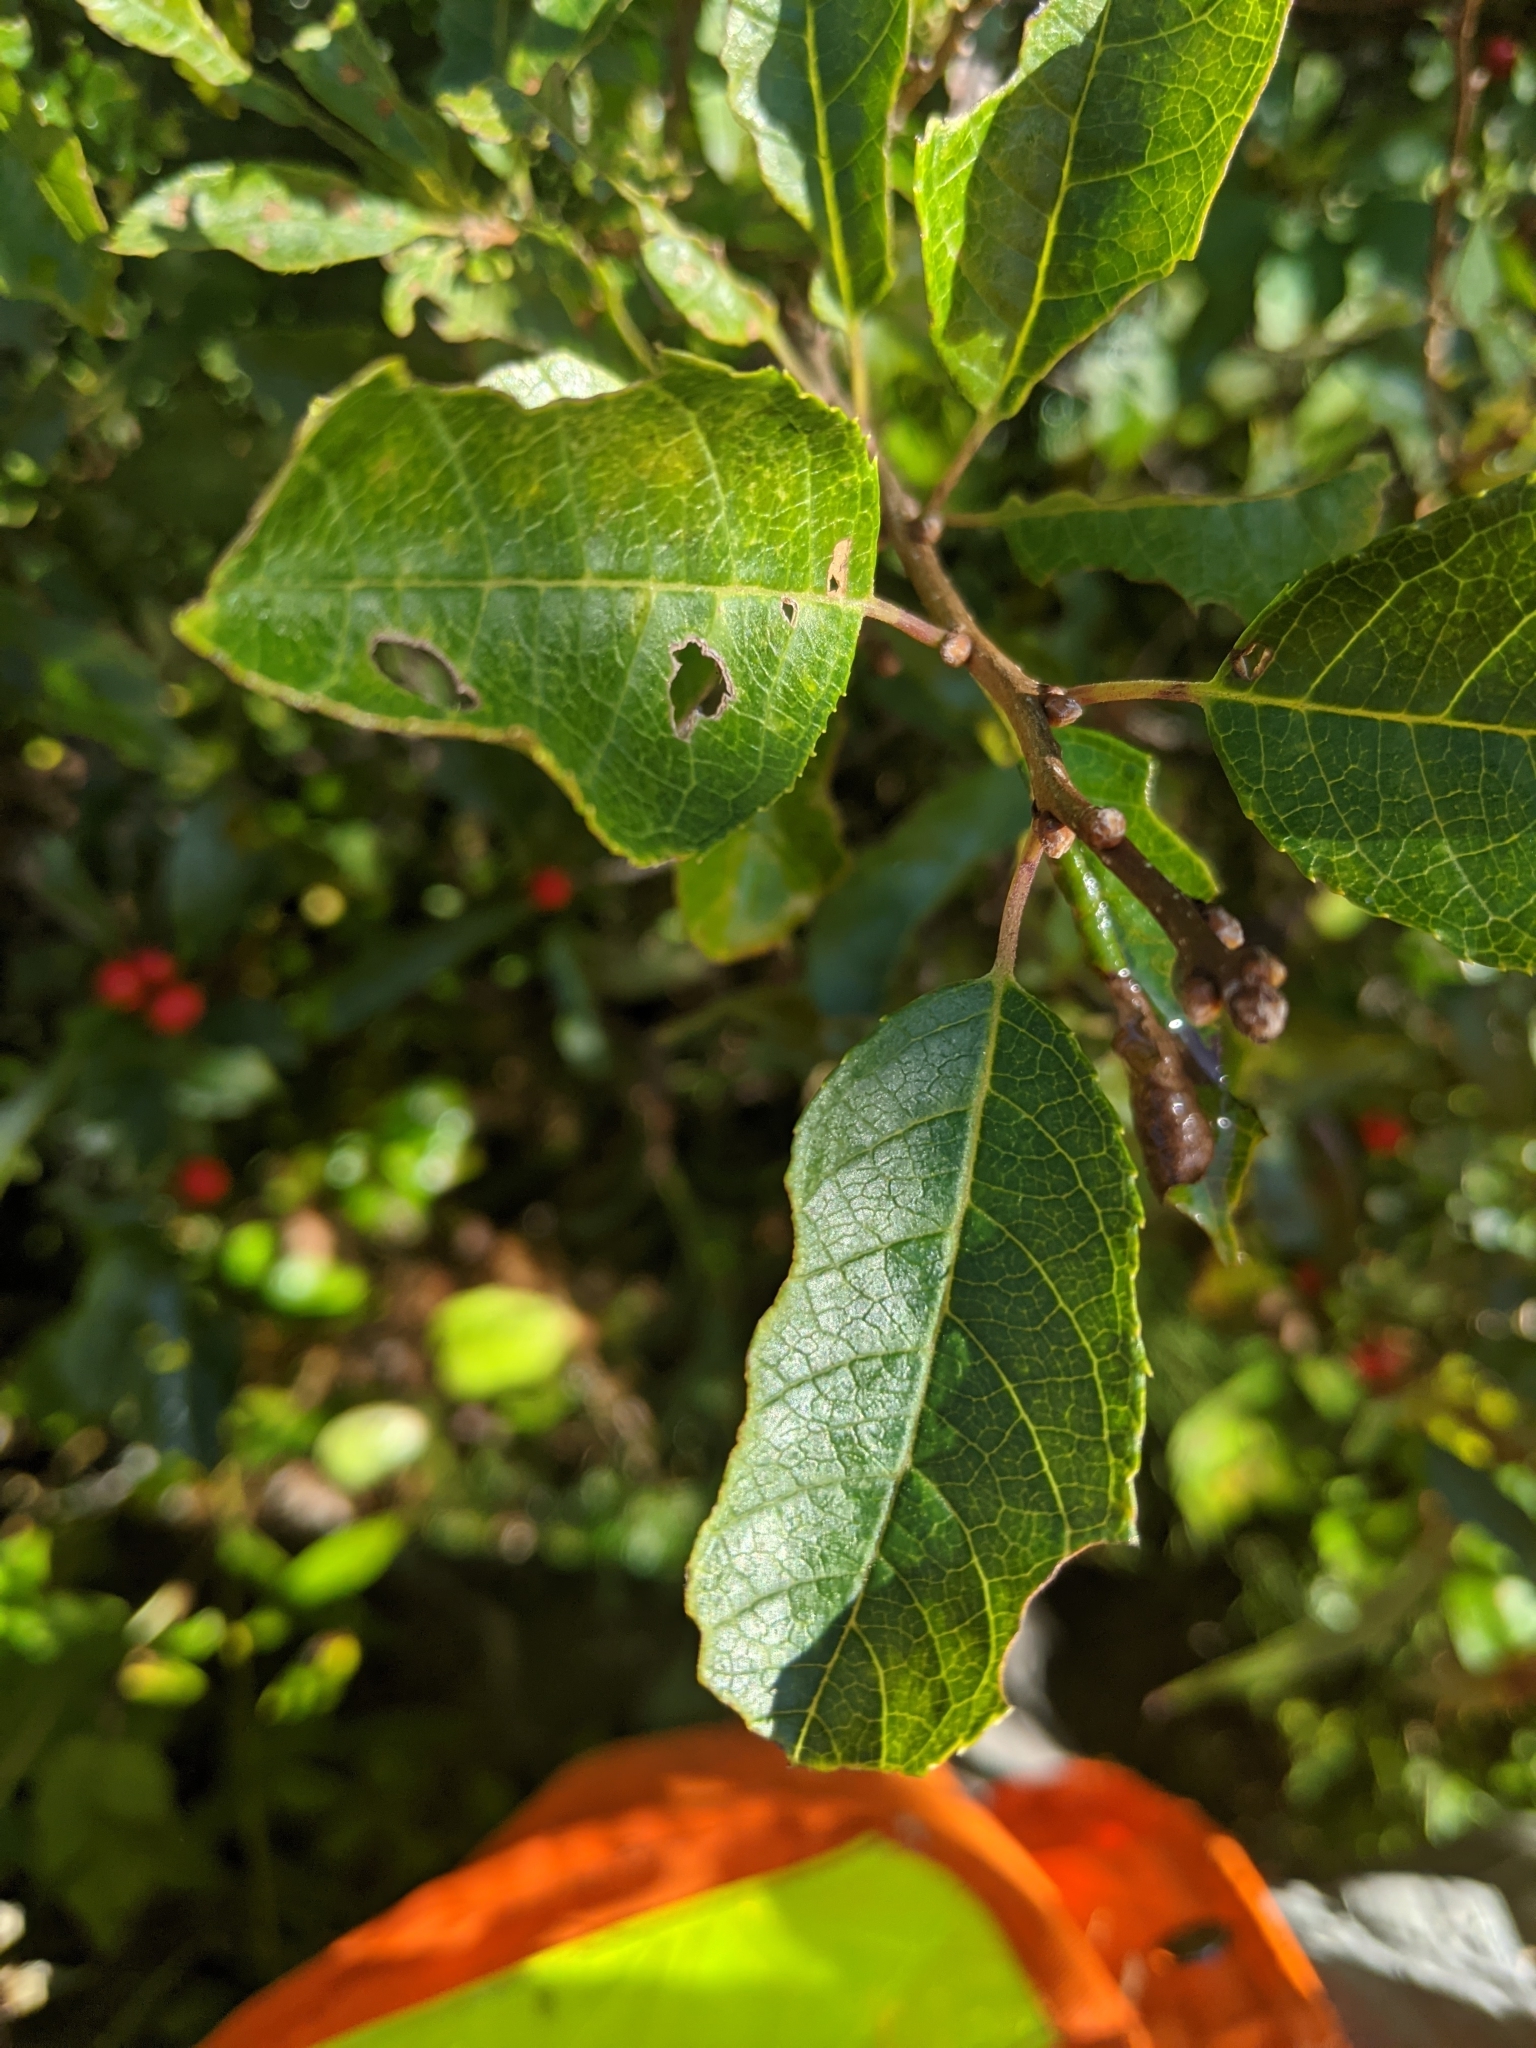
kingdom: Plantae
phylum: Tracheophyta
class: Magnoliopsida
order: Aquifoliales
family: Aquifoliaceae
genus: Ilex
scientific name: Ilex verticillata
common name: Virginia winterberry
